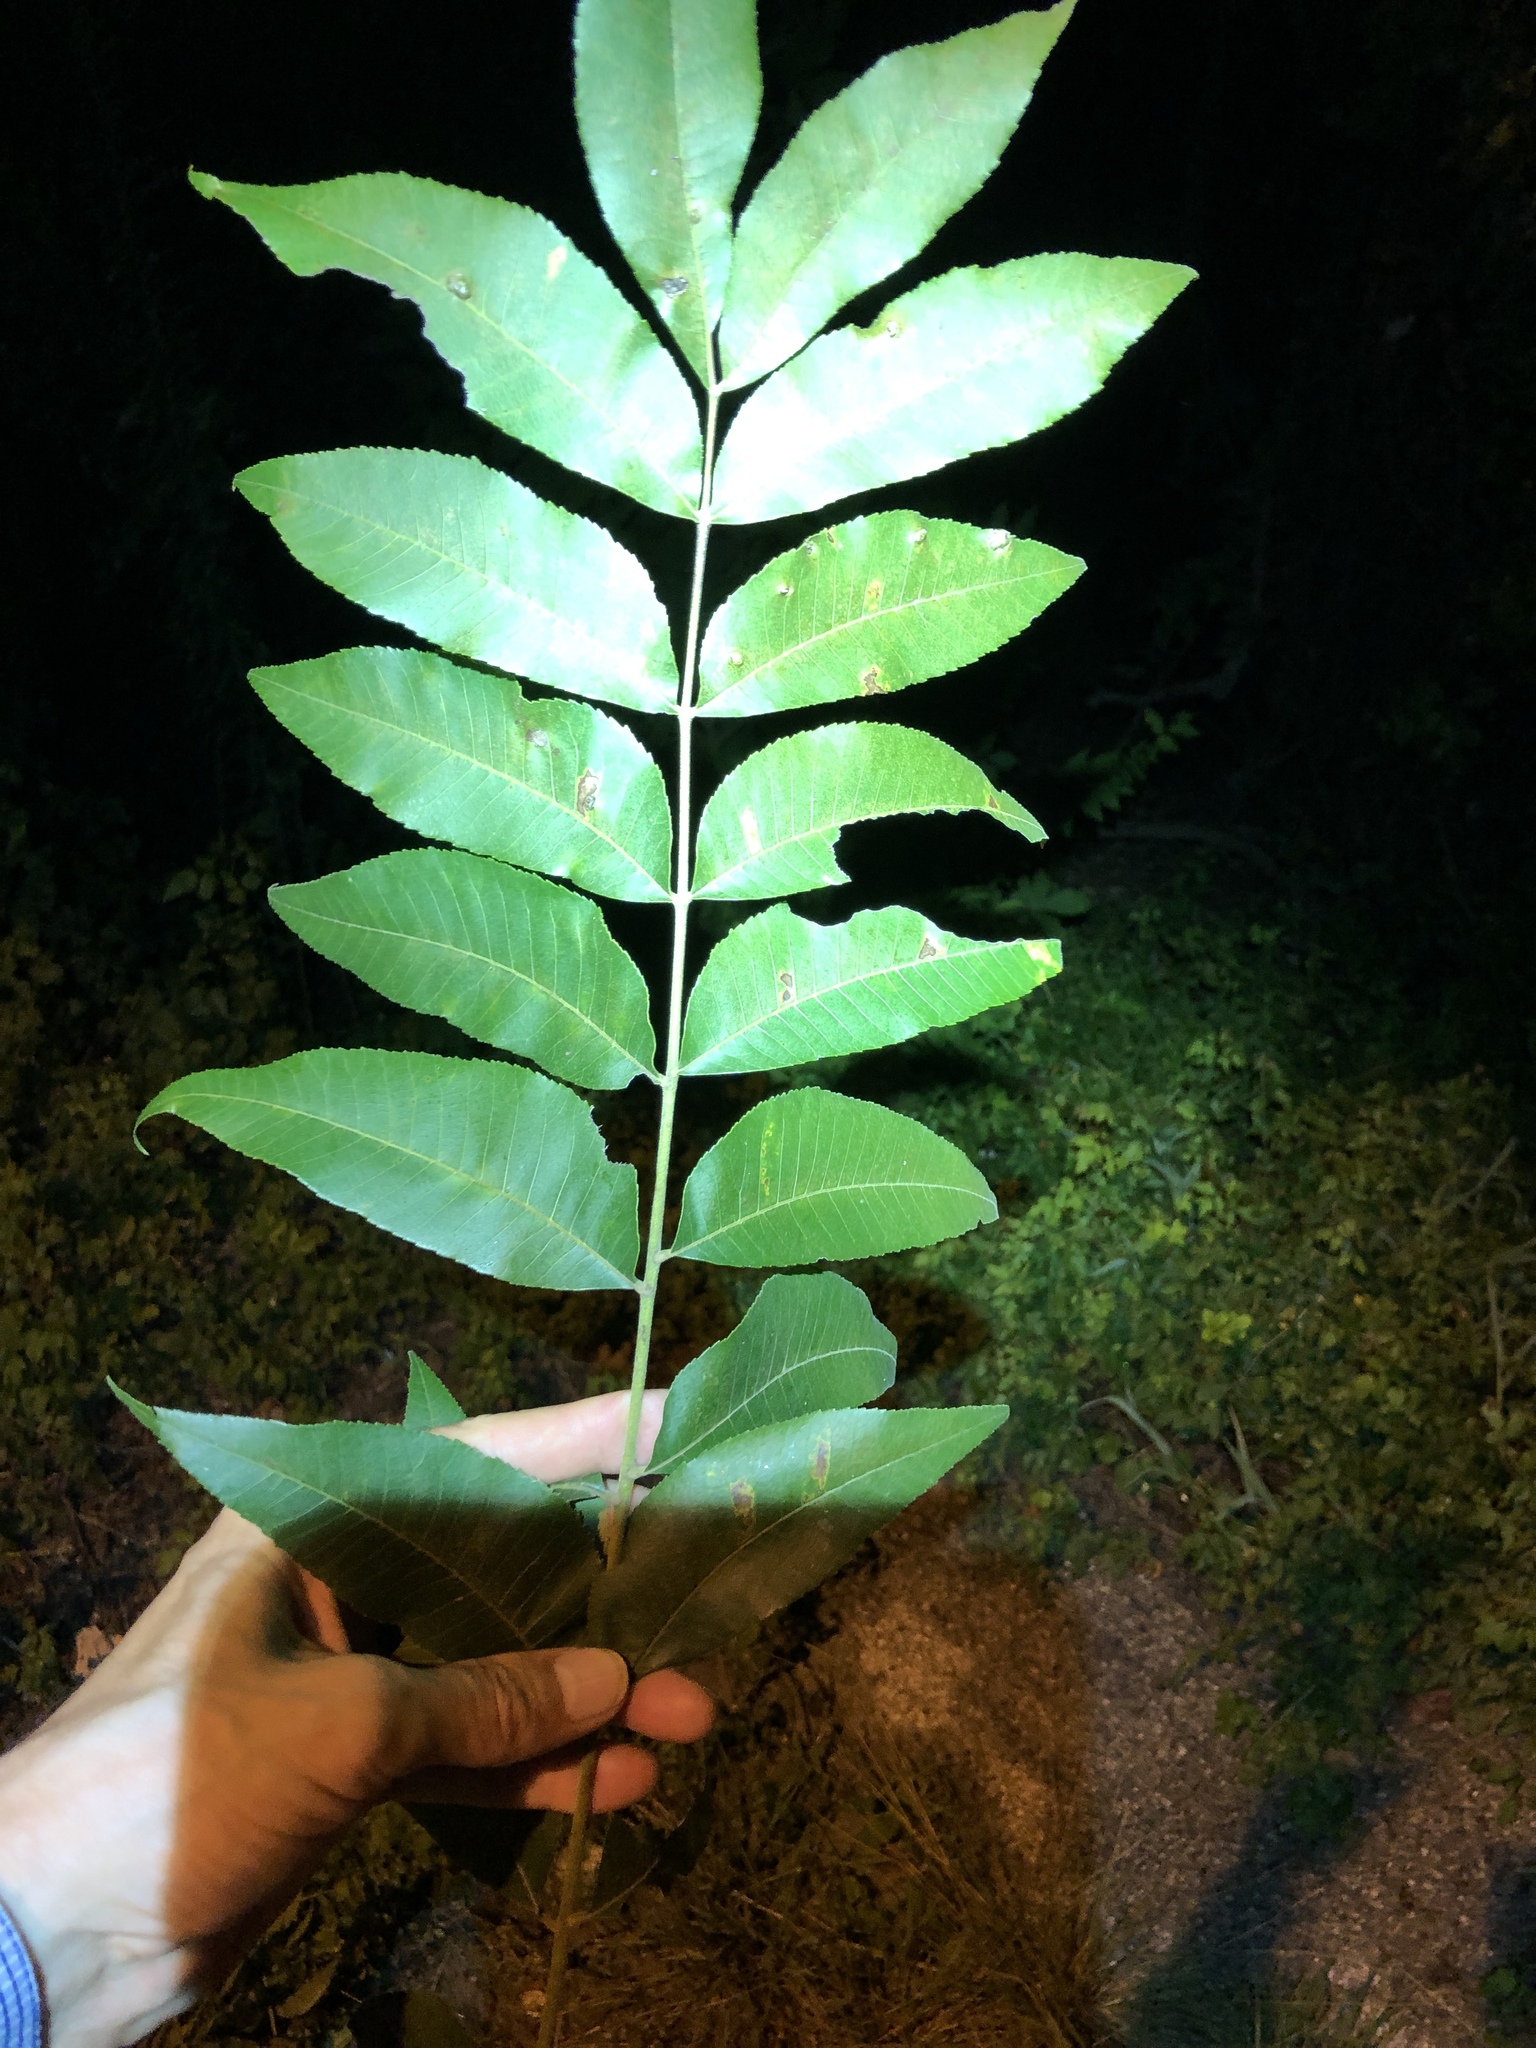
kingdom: Plantae
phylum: Tracheophyta
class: Magnoliopsida
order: Fagales
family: Juglandaceae
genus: Carya
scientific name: Carya illinoinensis
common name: Pecan
